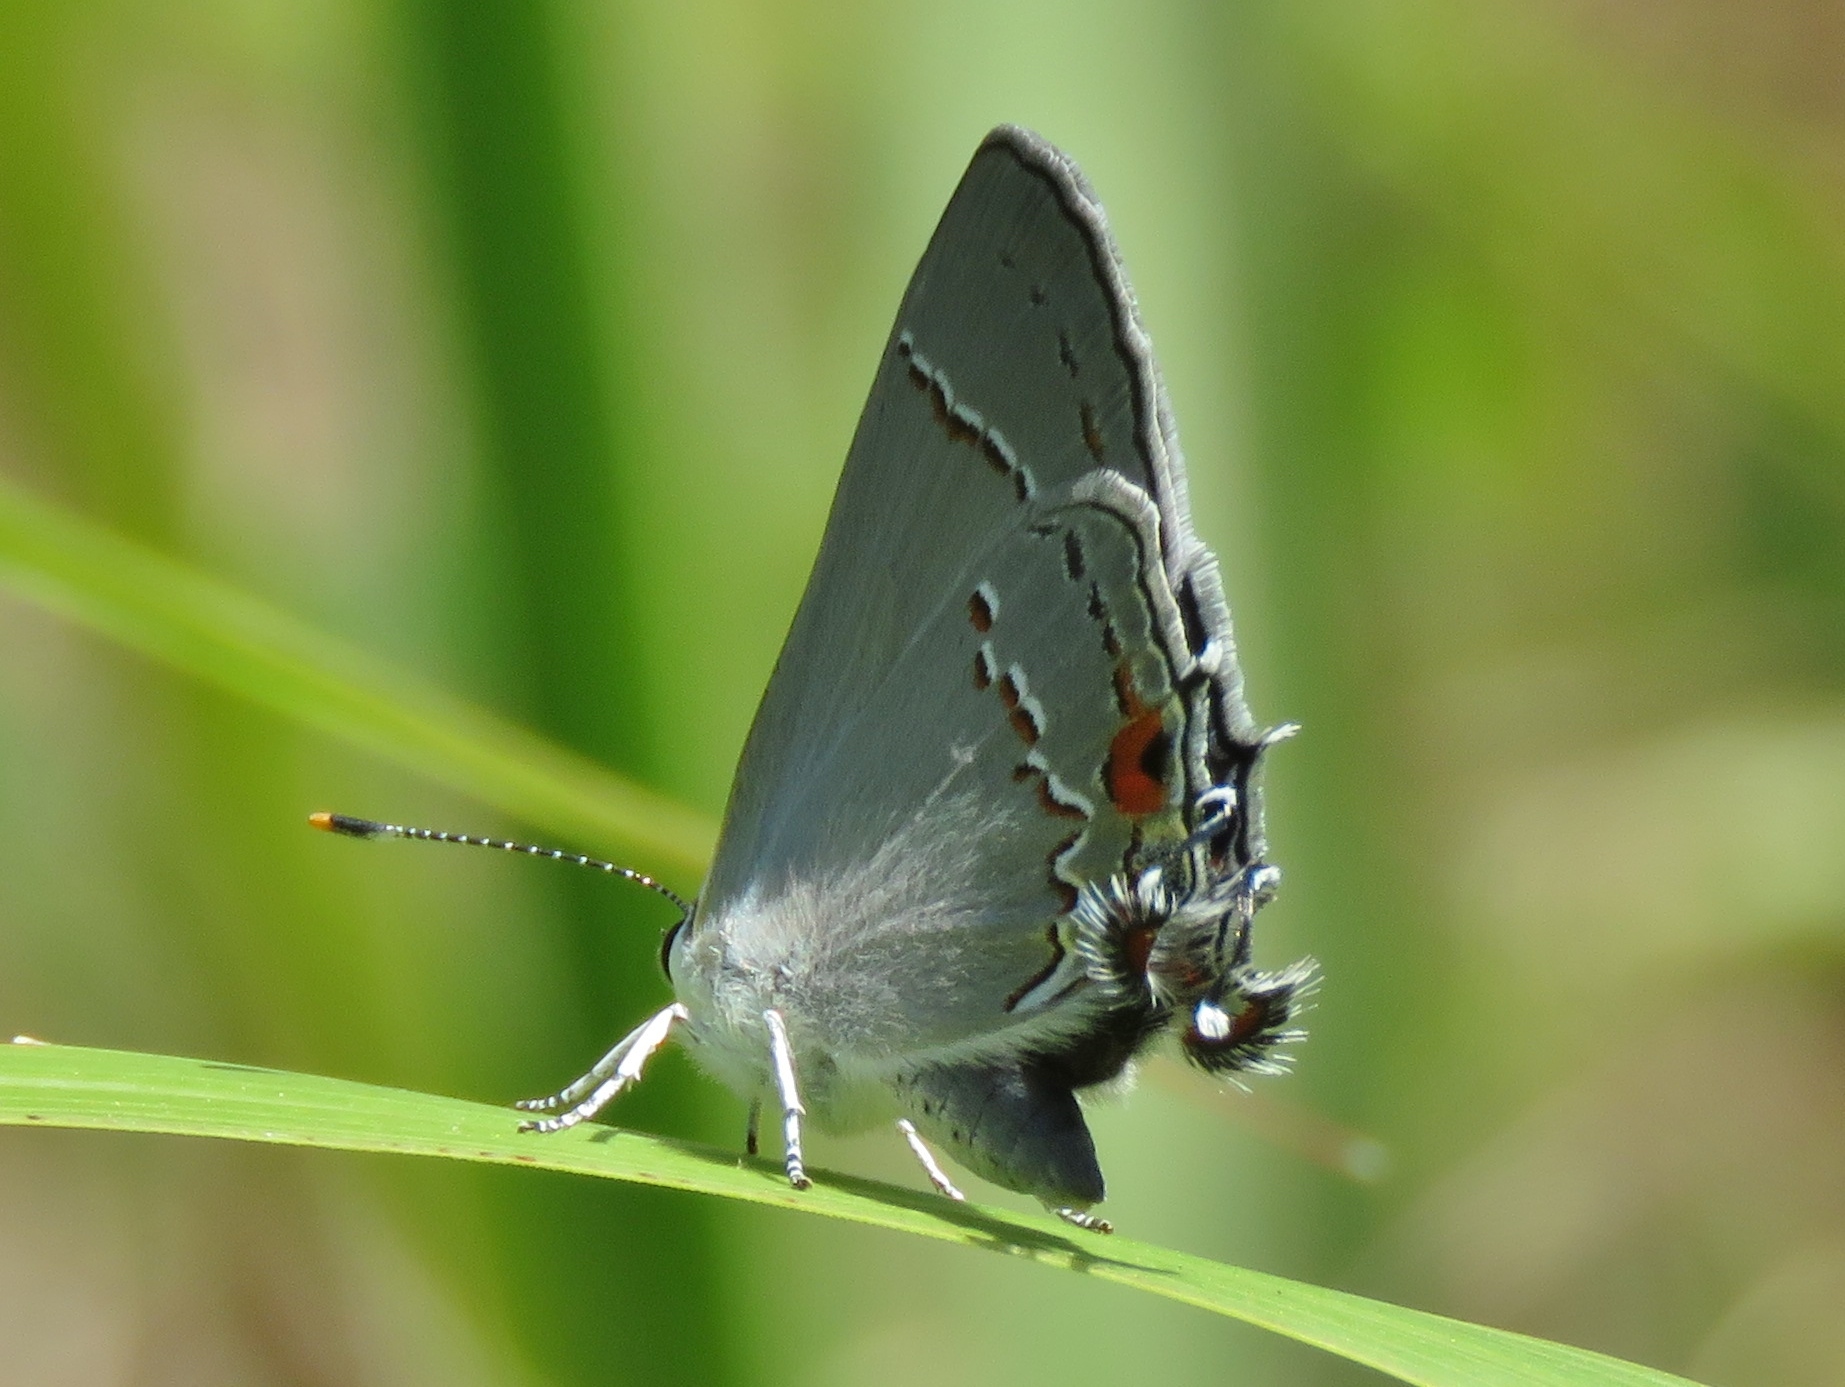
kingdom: Animalia
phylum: Arthropoda
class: Insecta
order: Lepidoptera
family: Lycaenidae
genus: Strymon
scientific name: Strymon melinus
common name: Gray hairstreak
